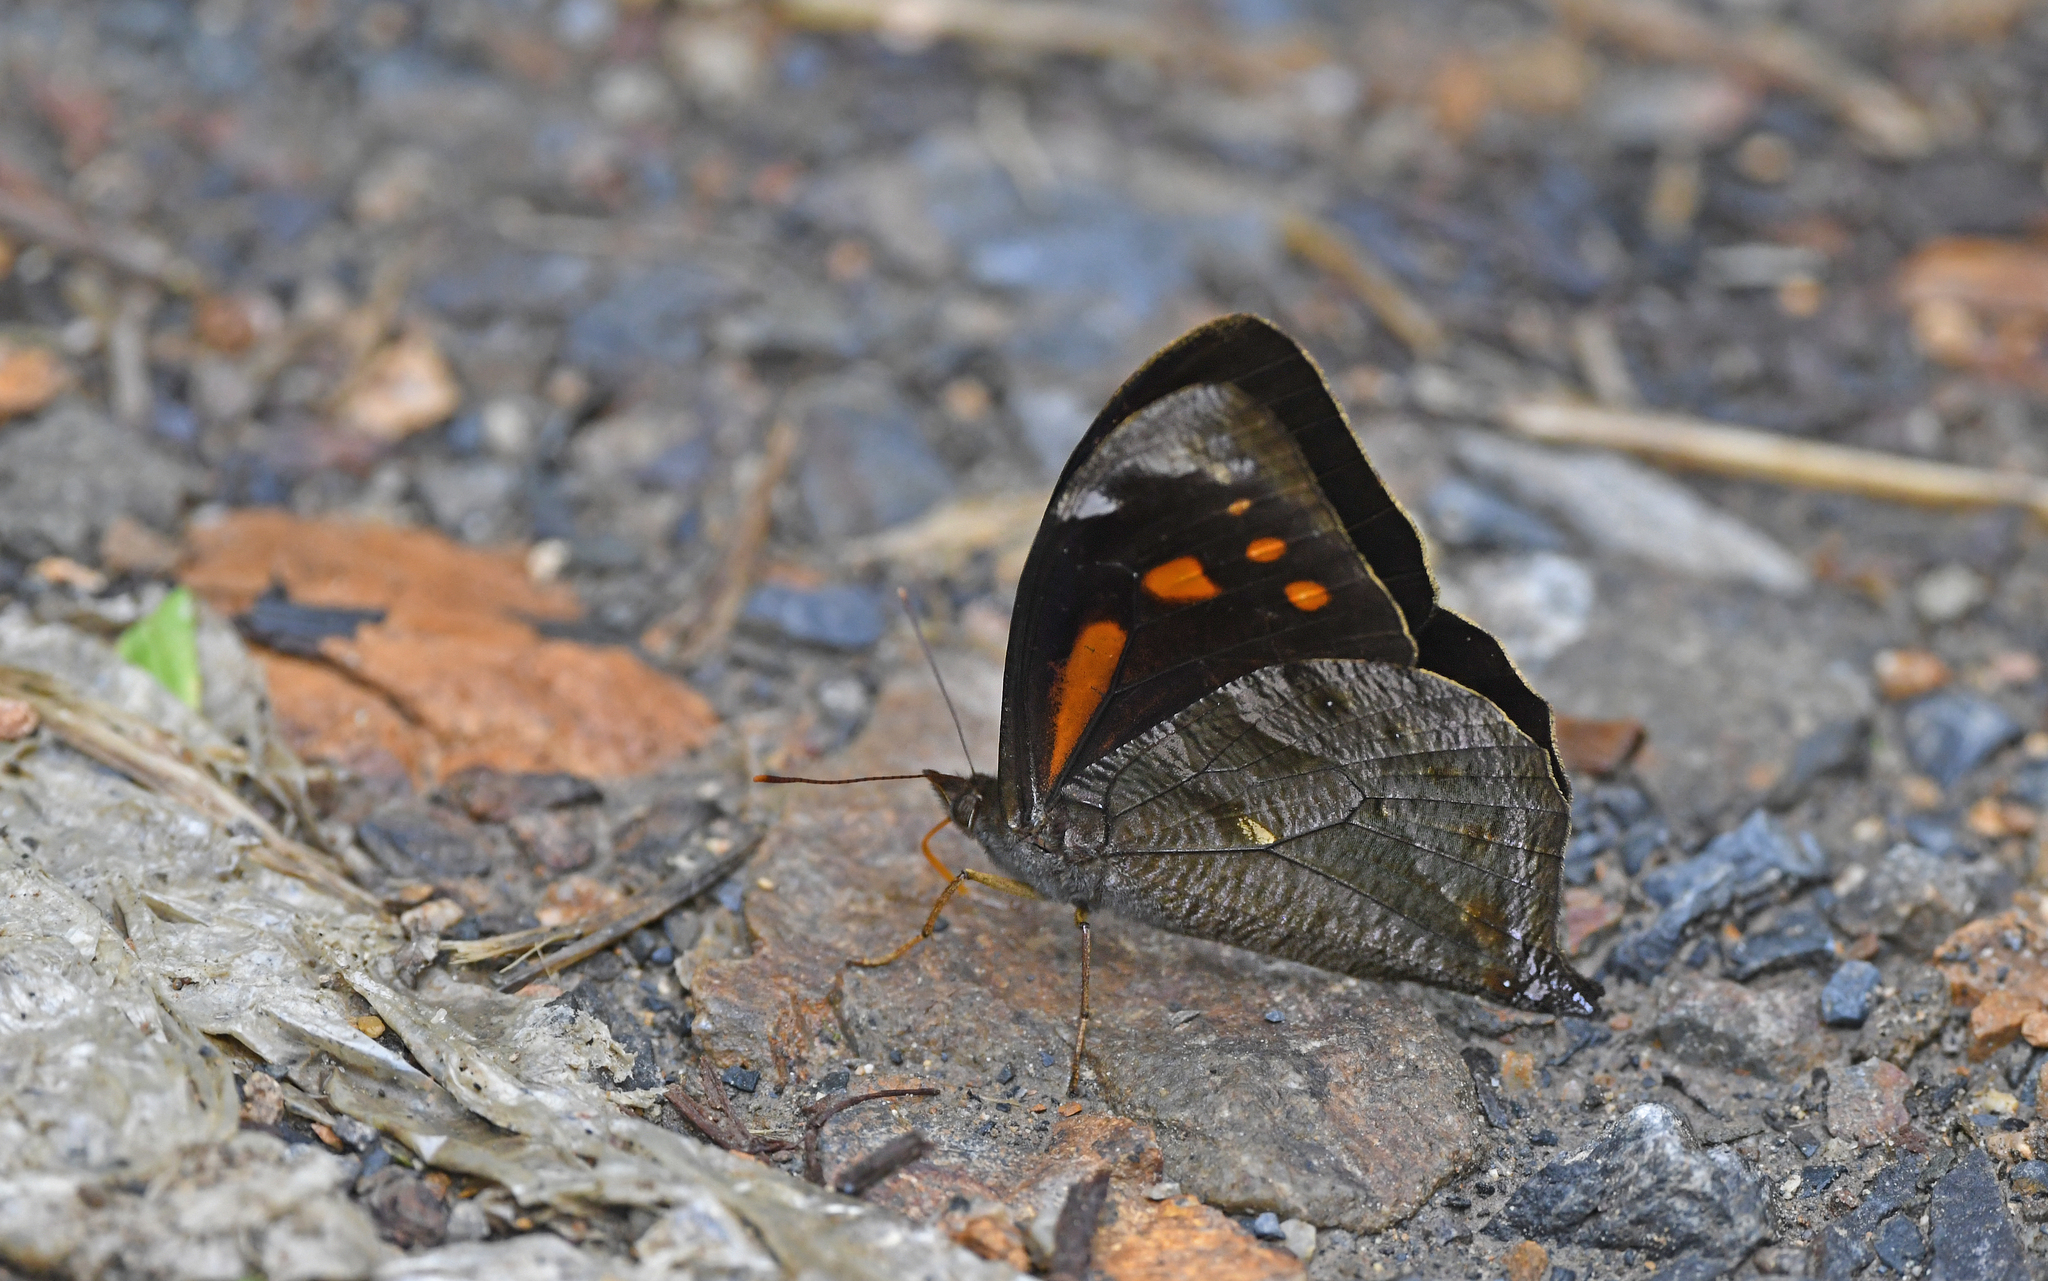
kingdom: Animalia
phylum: Arthropoda
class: Insecta
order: Lepidoptera
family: Nymphalidae
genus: Corades
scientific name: Corades medeba
